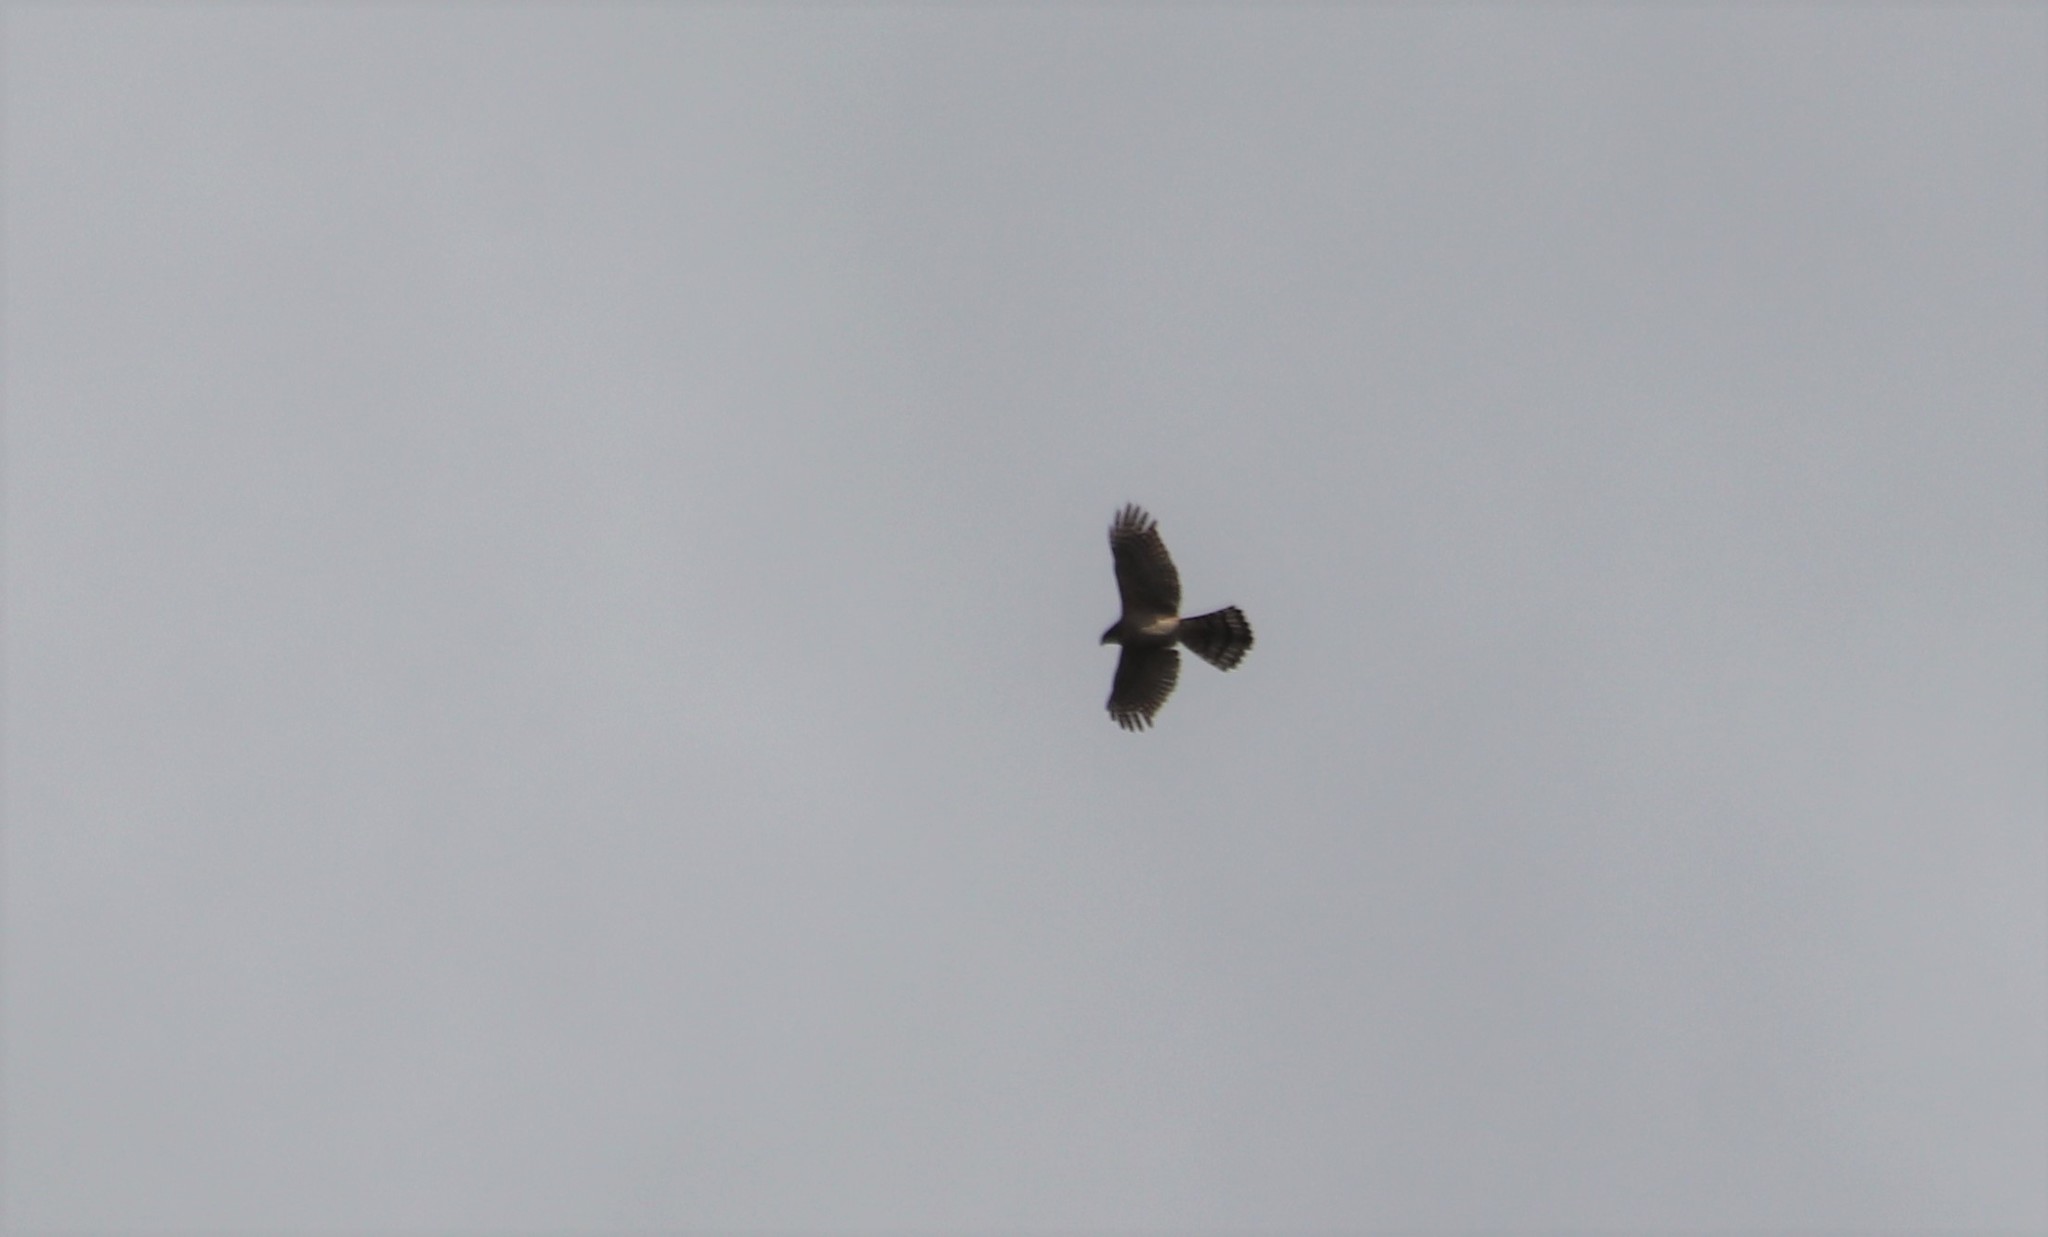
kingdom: Animalia
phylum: Chordata
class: Aves
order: Accipitriformes
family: Accipitridae
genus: Accipiter
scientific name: Accipiter cooperii
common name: Cooper's hawk
